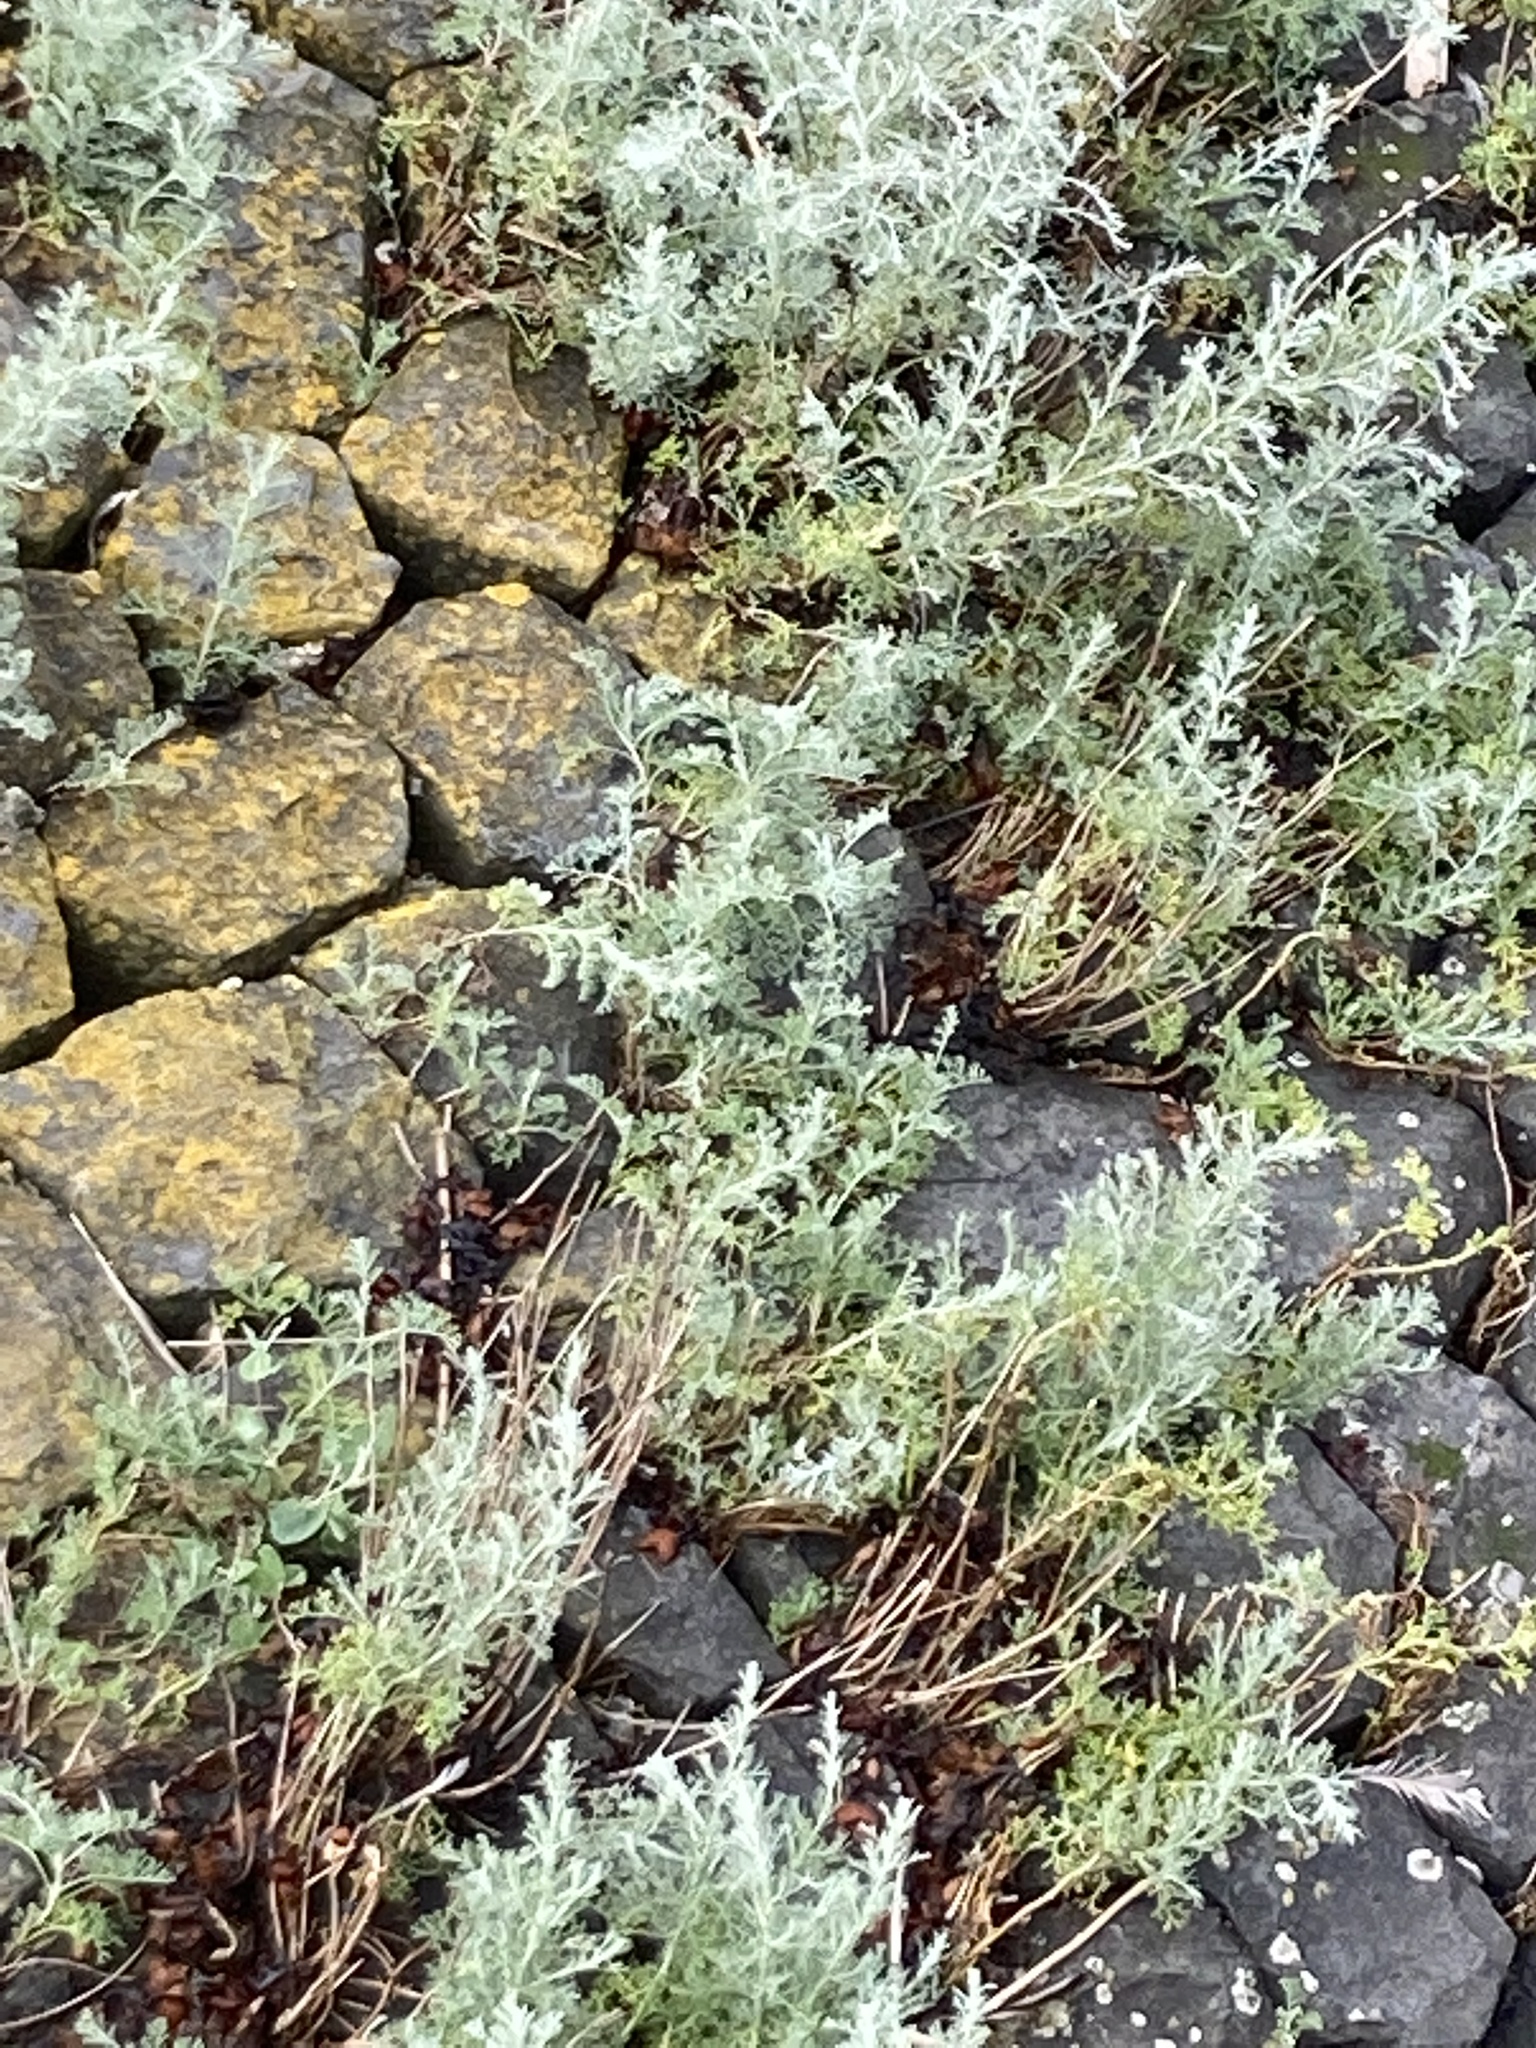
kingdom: Plantae
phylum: Tracheophyta
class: Magnoliopsida
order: Asterales
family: Asteraceae
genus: Artemisia
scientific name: Artemisia maritima
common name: Wormseed
